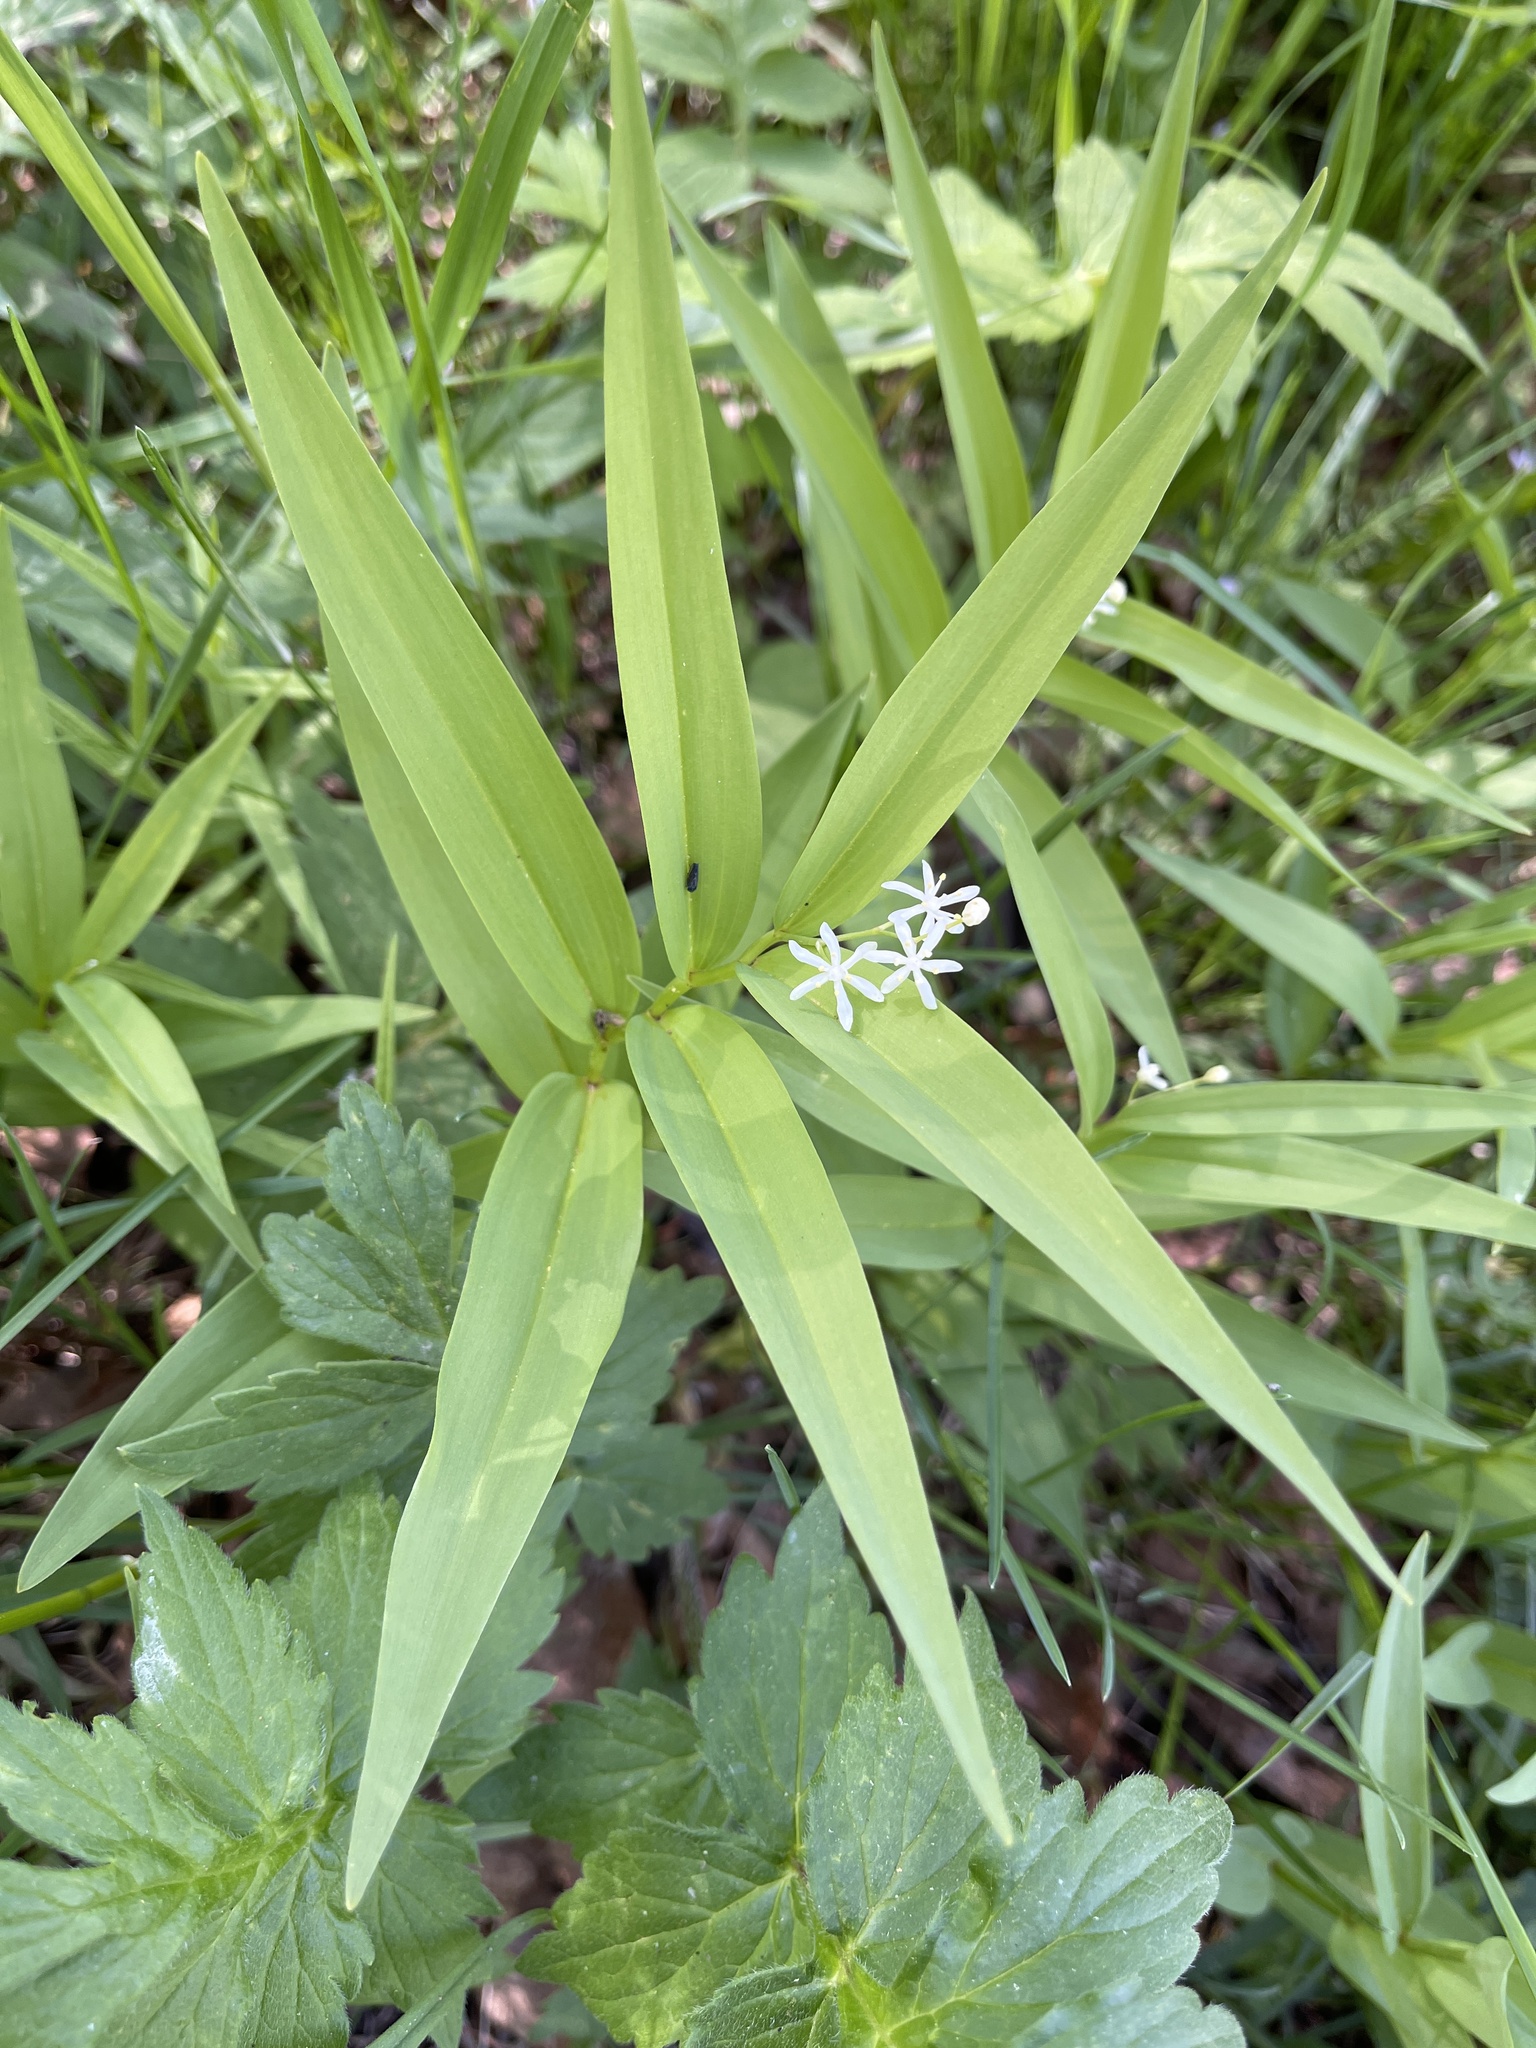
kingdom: Plantae
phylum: Tracheophyta
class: Liliopsida
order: Asparagales
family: Asparagaceae
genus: Maianthemum
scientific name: Maianthemum stellatum
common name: Little false solomon's seal
